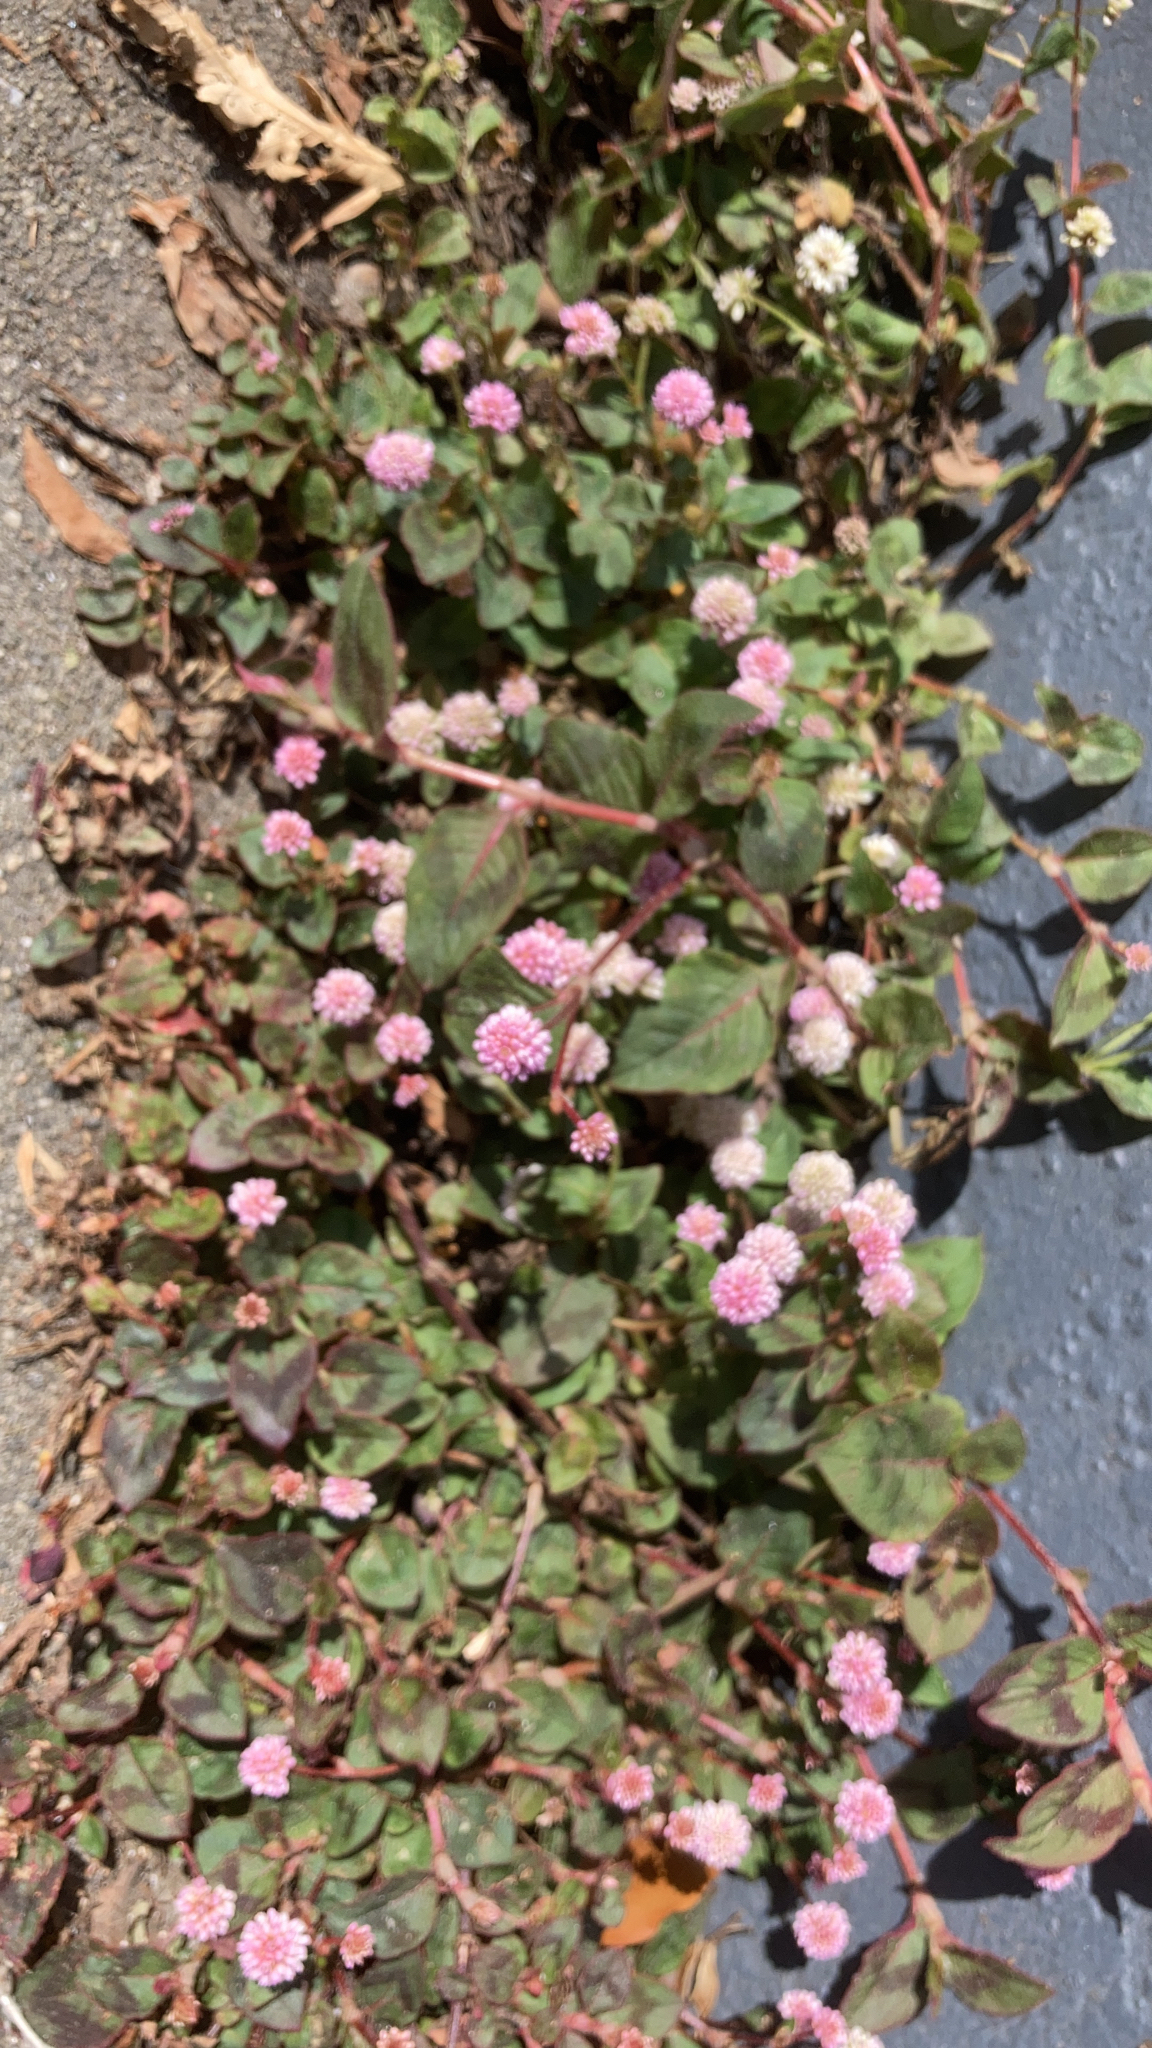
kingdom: Plantae
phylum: Tracheophyta
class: Magnoliopsida
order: Caryophyllales
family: Polygonaceae
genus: Persicaria
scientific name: Persicaria capitata
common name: Pinkhead smartweed
